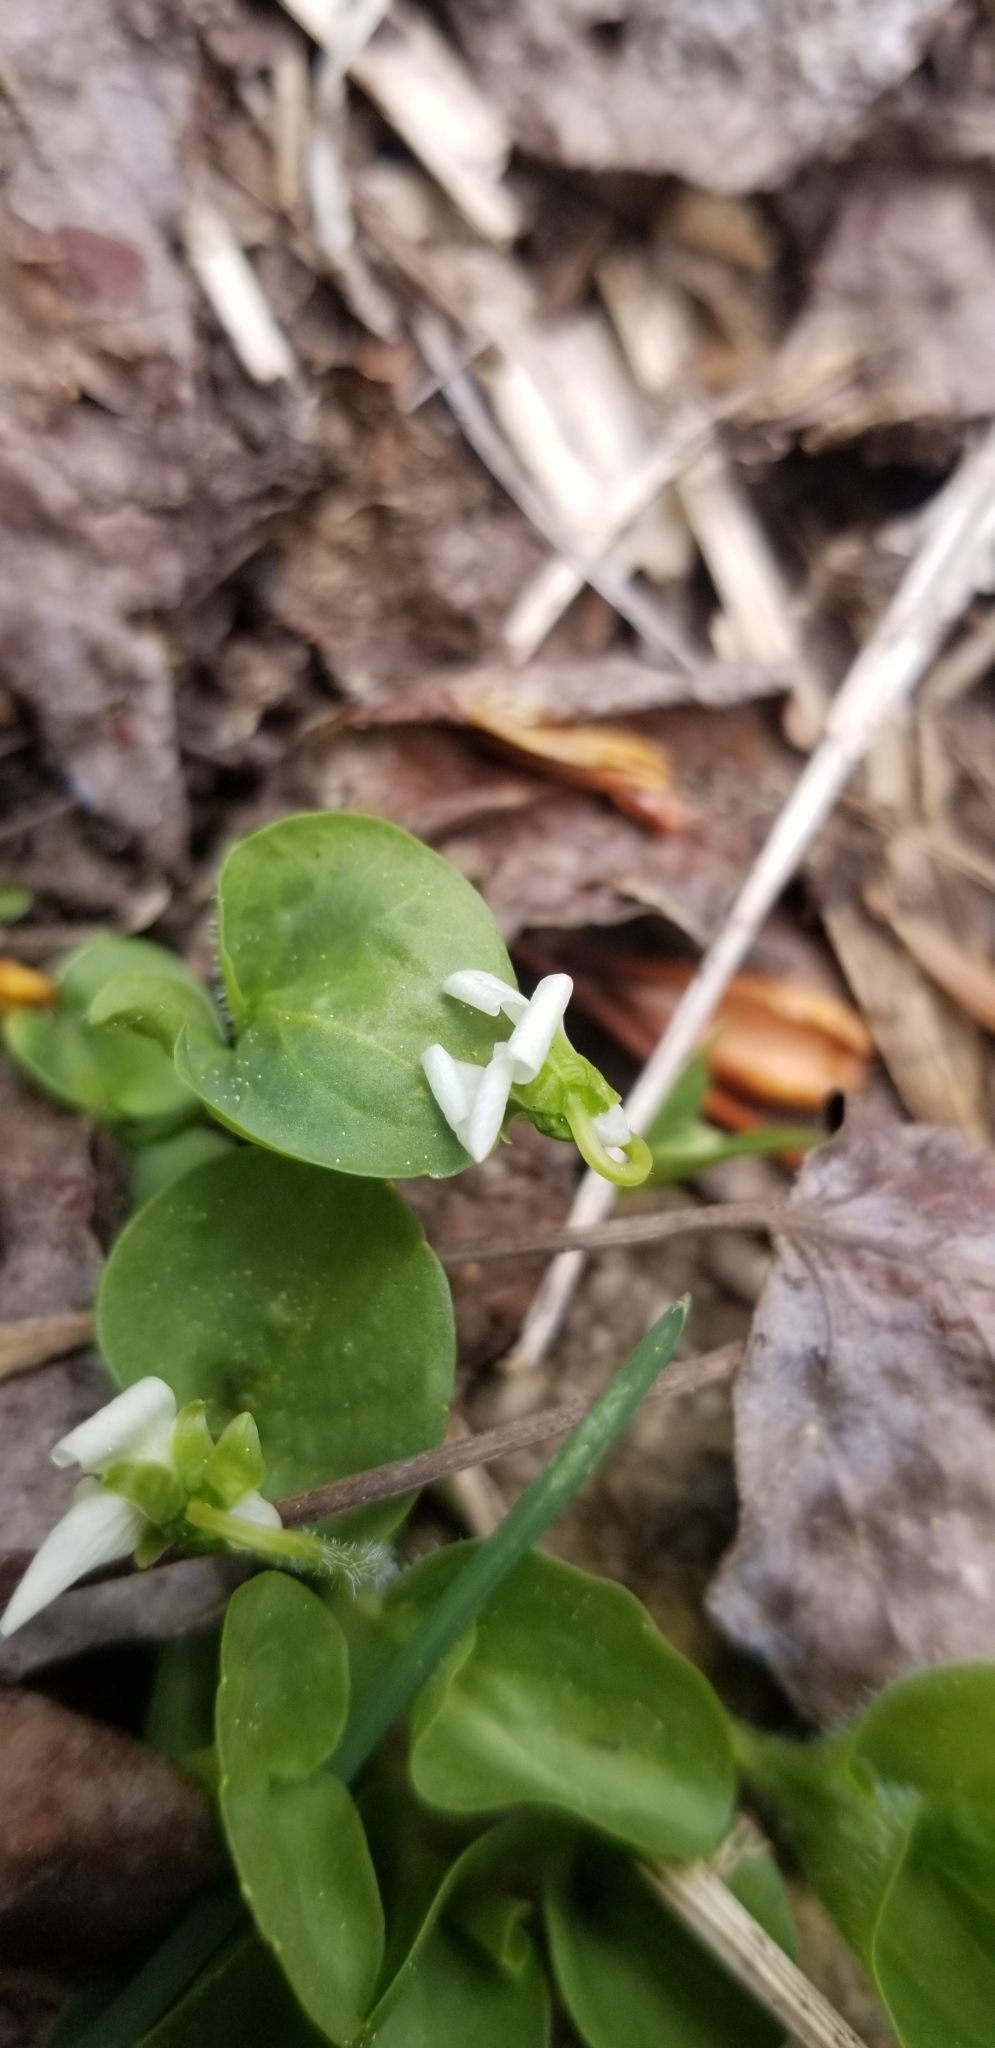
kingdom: Plantae
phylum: Tracheophyta
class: Magnoliopsida
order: Malpighiales
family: Violaceae
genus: Viola
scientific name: Viola macloskeyi
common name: Macloskey's violet
